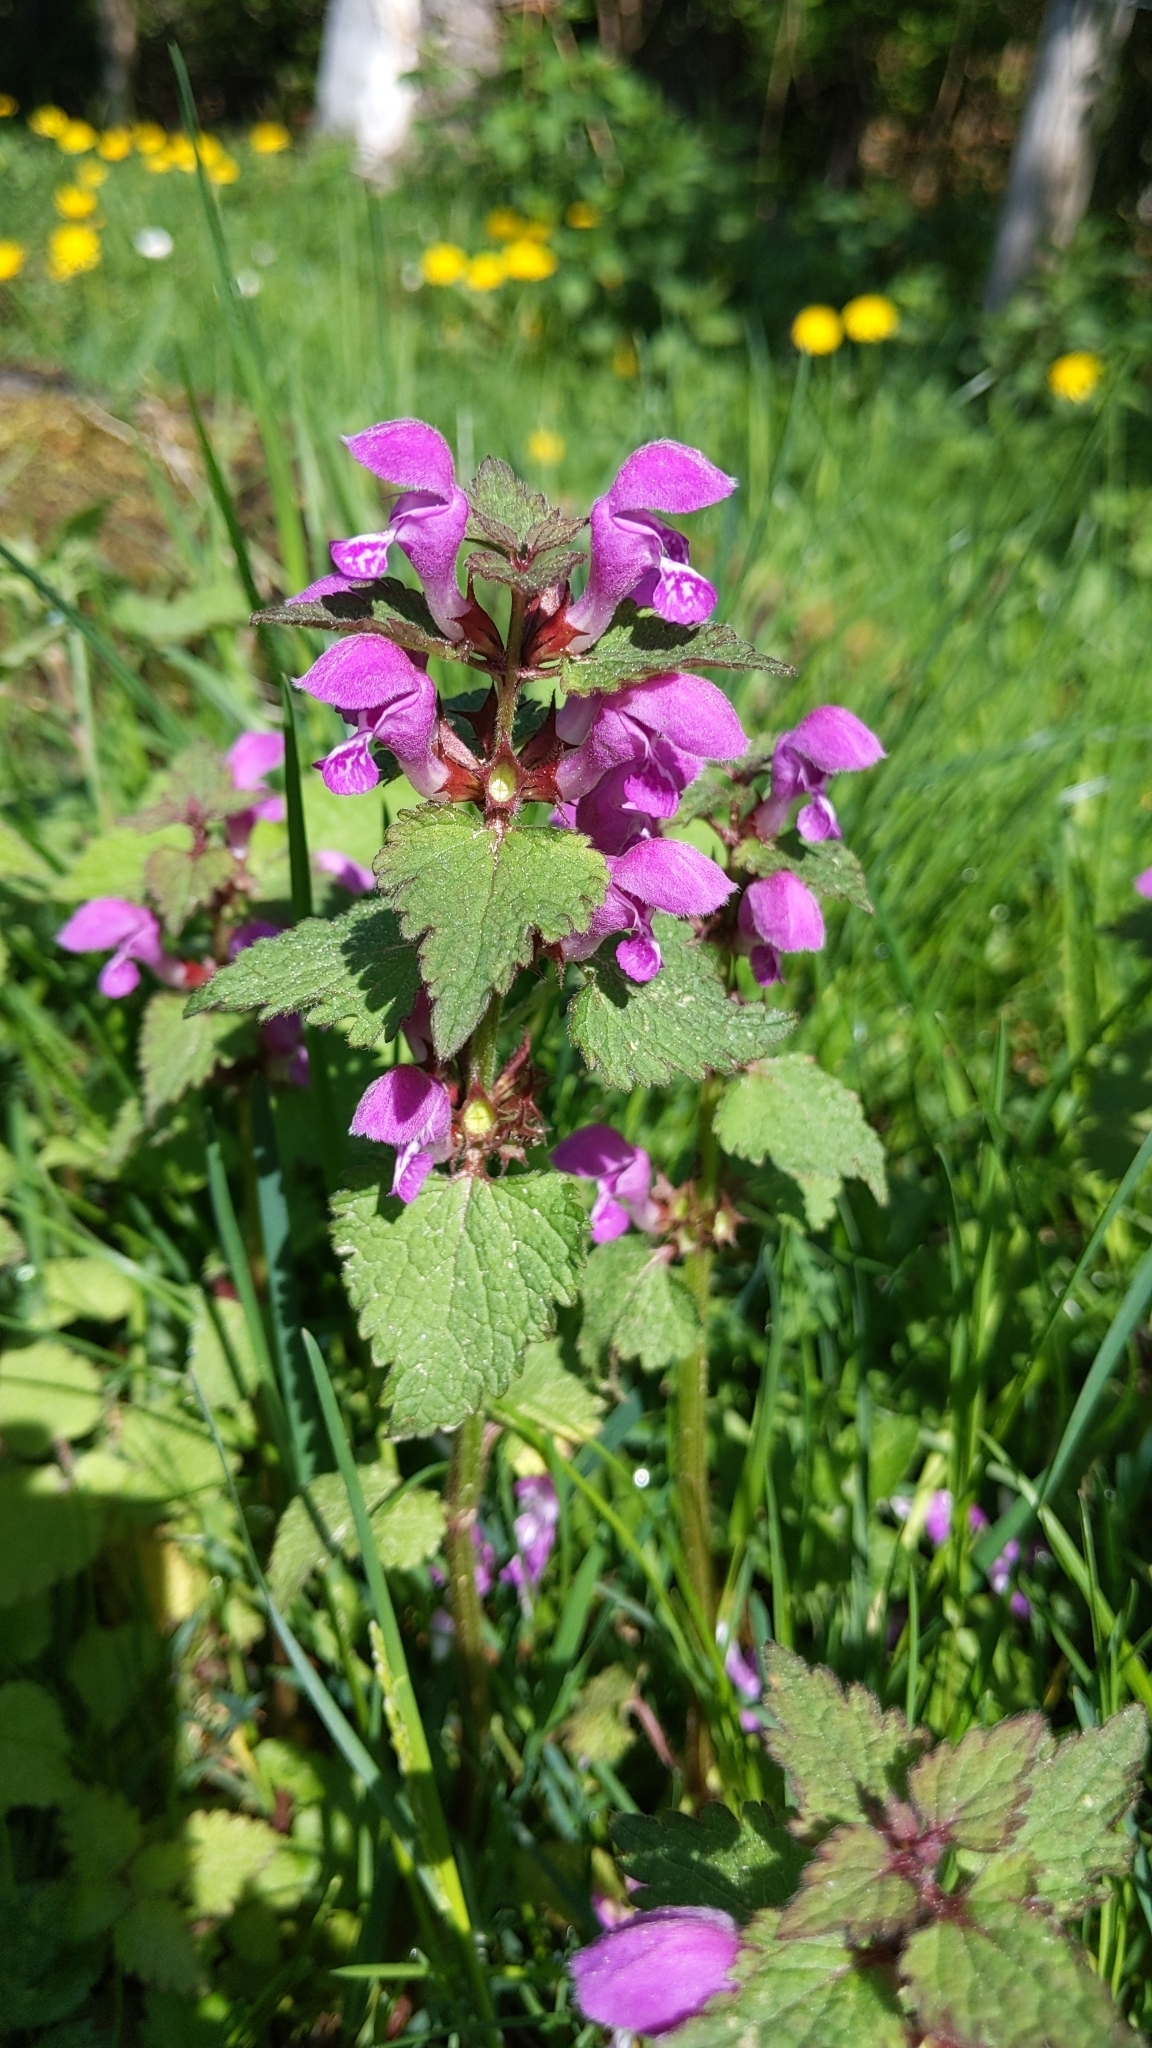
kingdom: Plantae
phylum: Tracheophyta
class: Magnoliopsida
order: Lamiales
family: Lamiaceae
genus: Lamium
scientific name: Lamium maculatum
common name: Spotted dead-nettle
